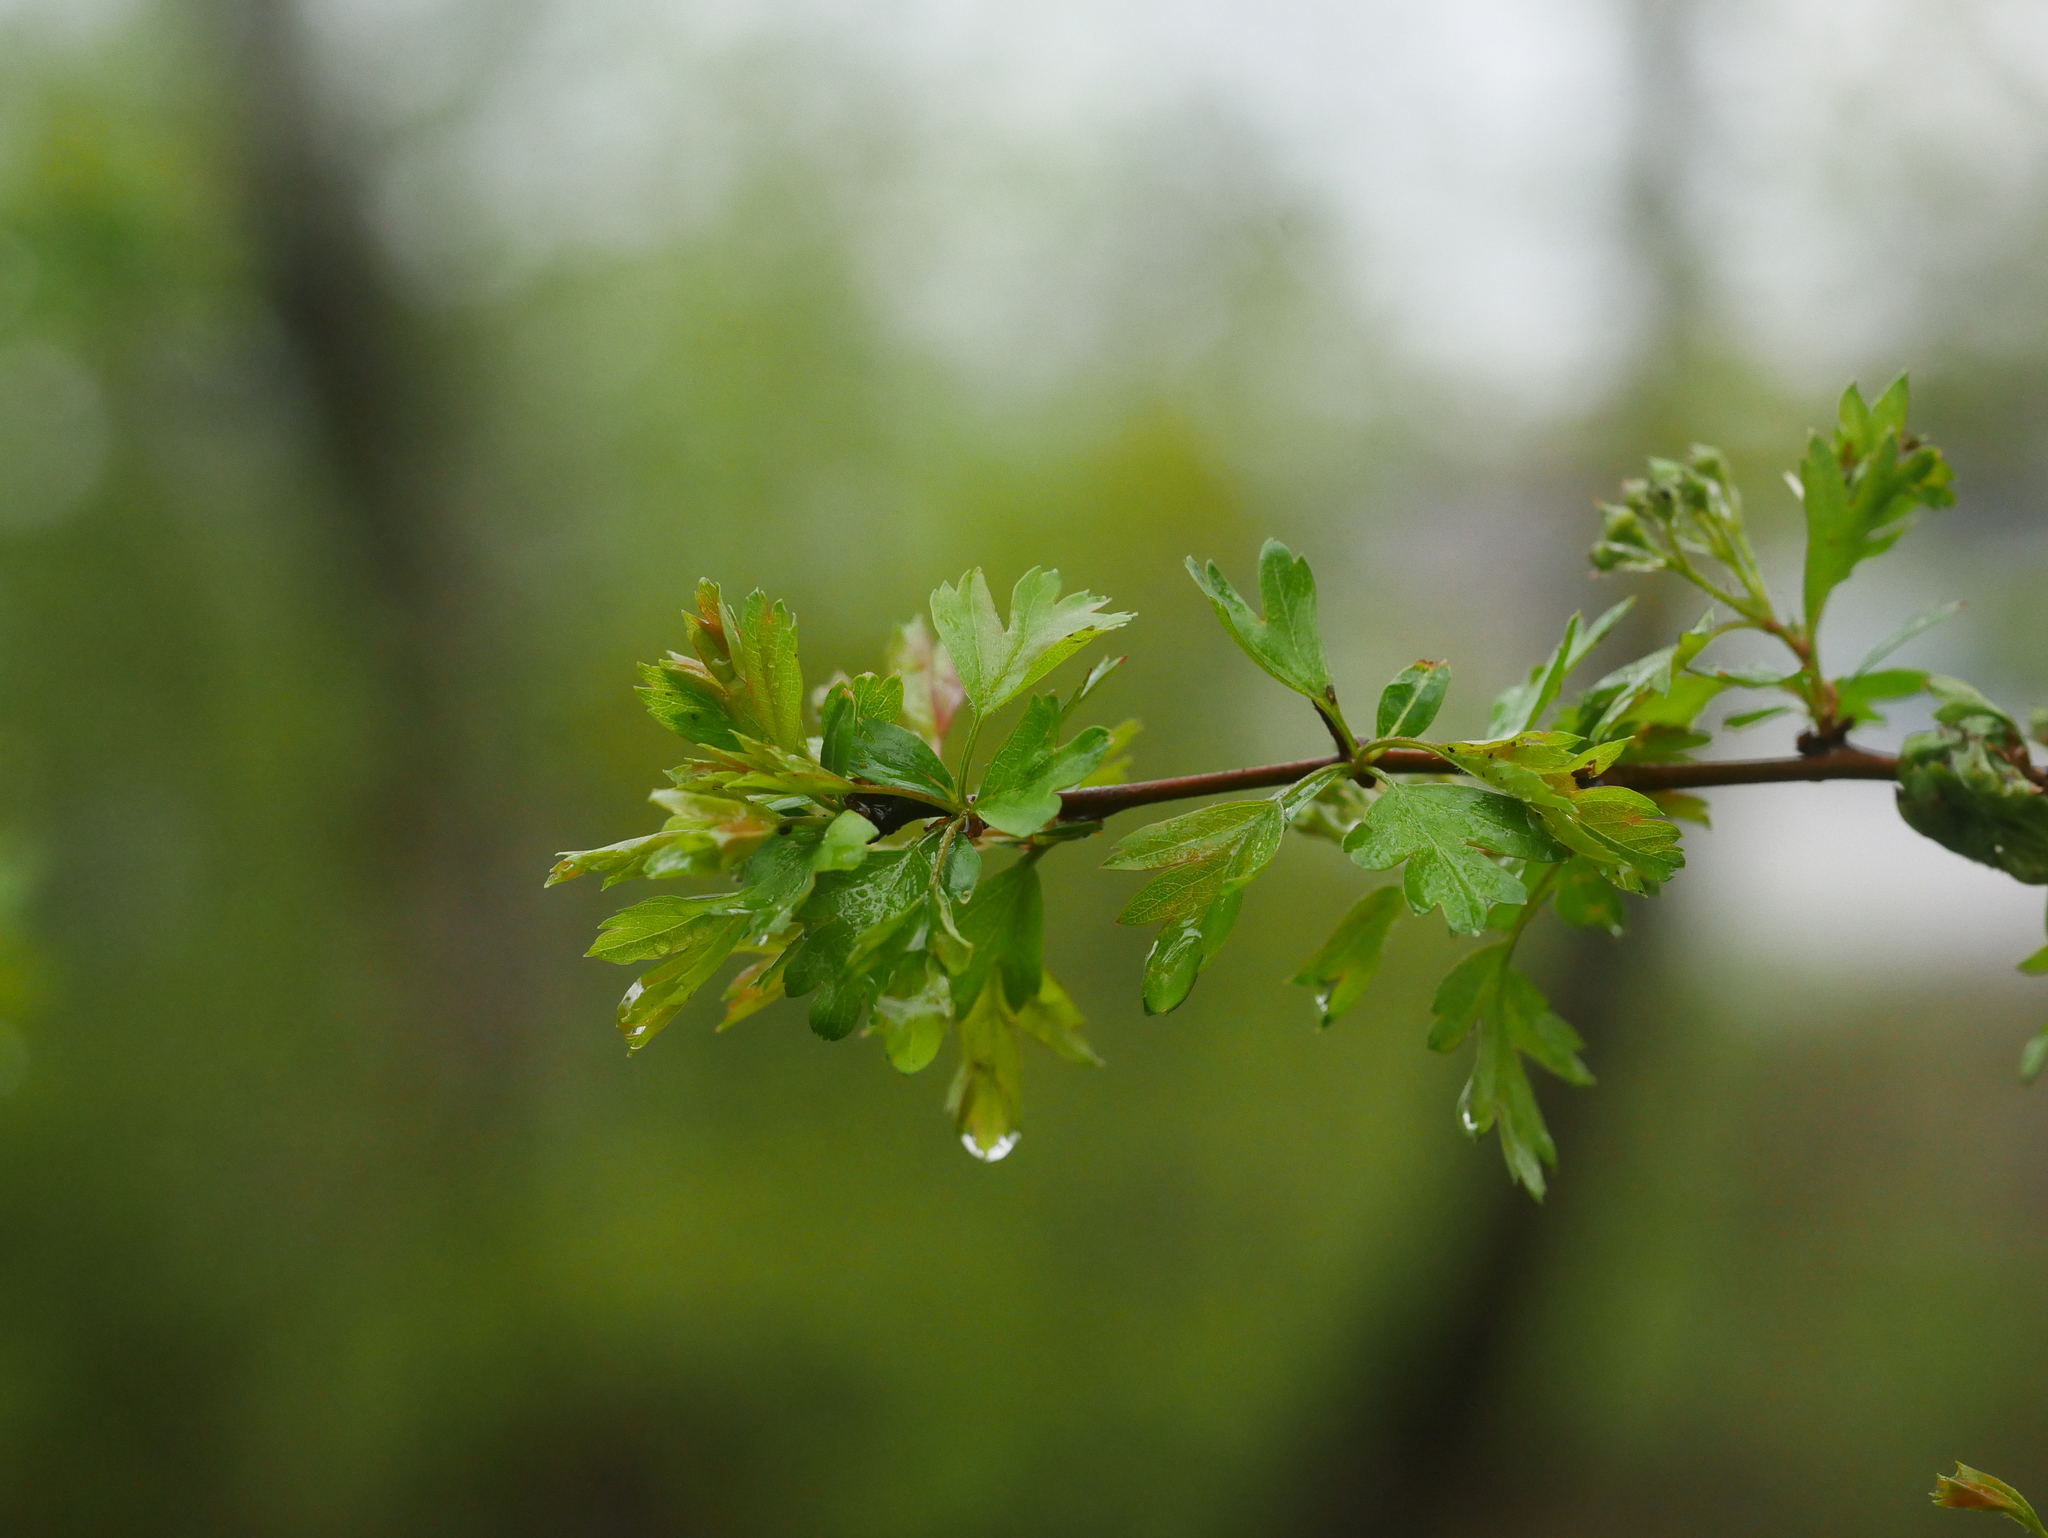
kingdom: Plantae
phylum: Tracheophyta
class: Magnoliopsida
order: Rosales
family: Rosaceae
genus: Crataegus
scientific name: Crataegus monogyna
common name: Hawthorn
